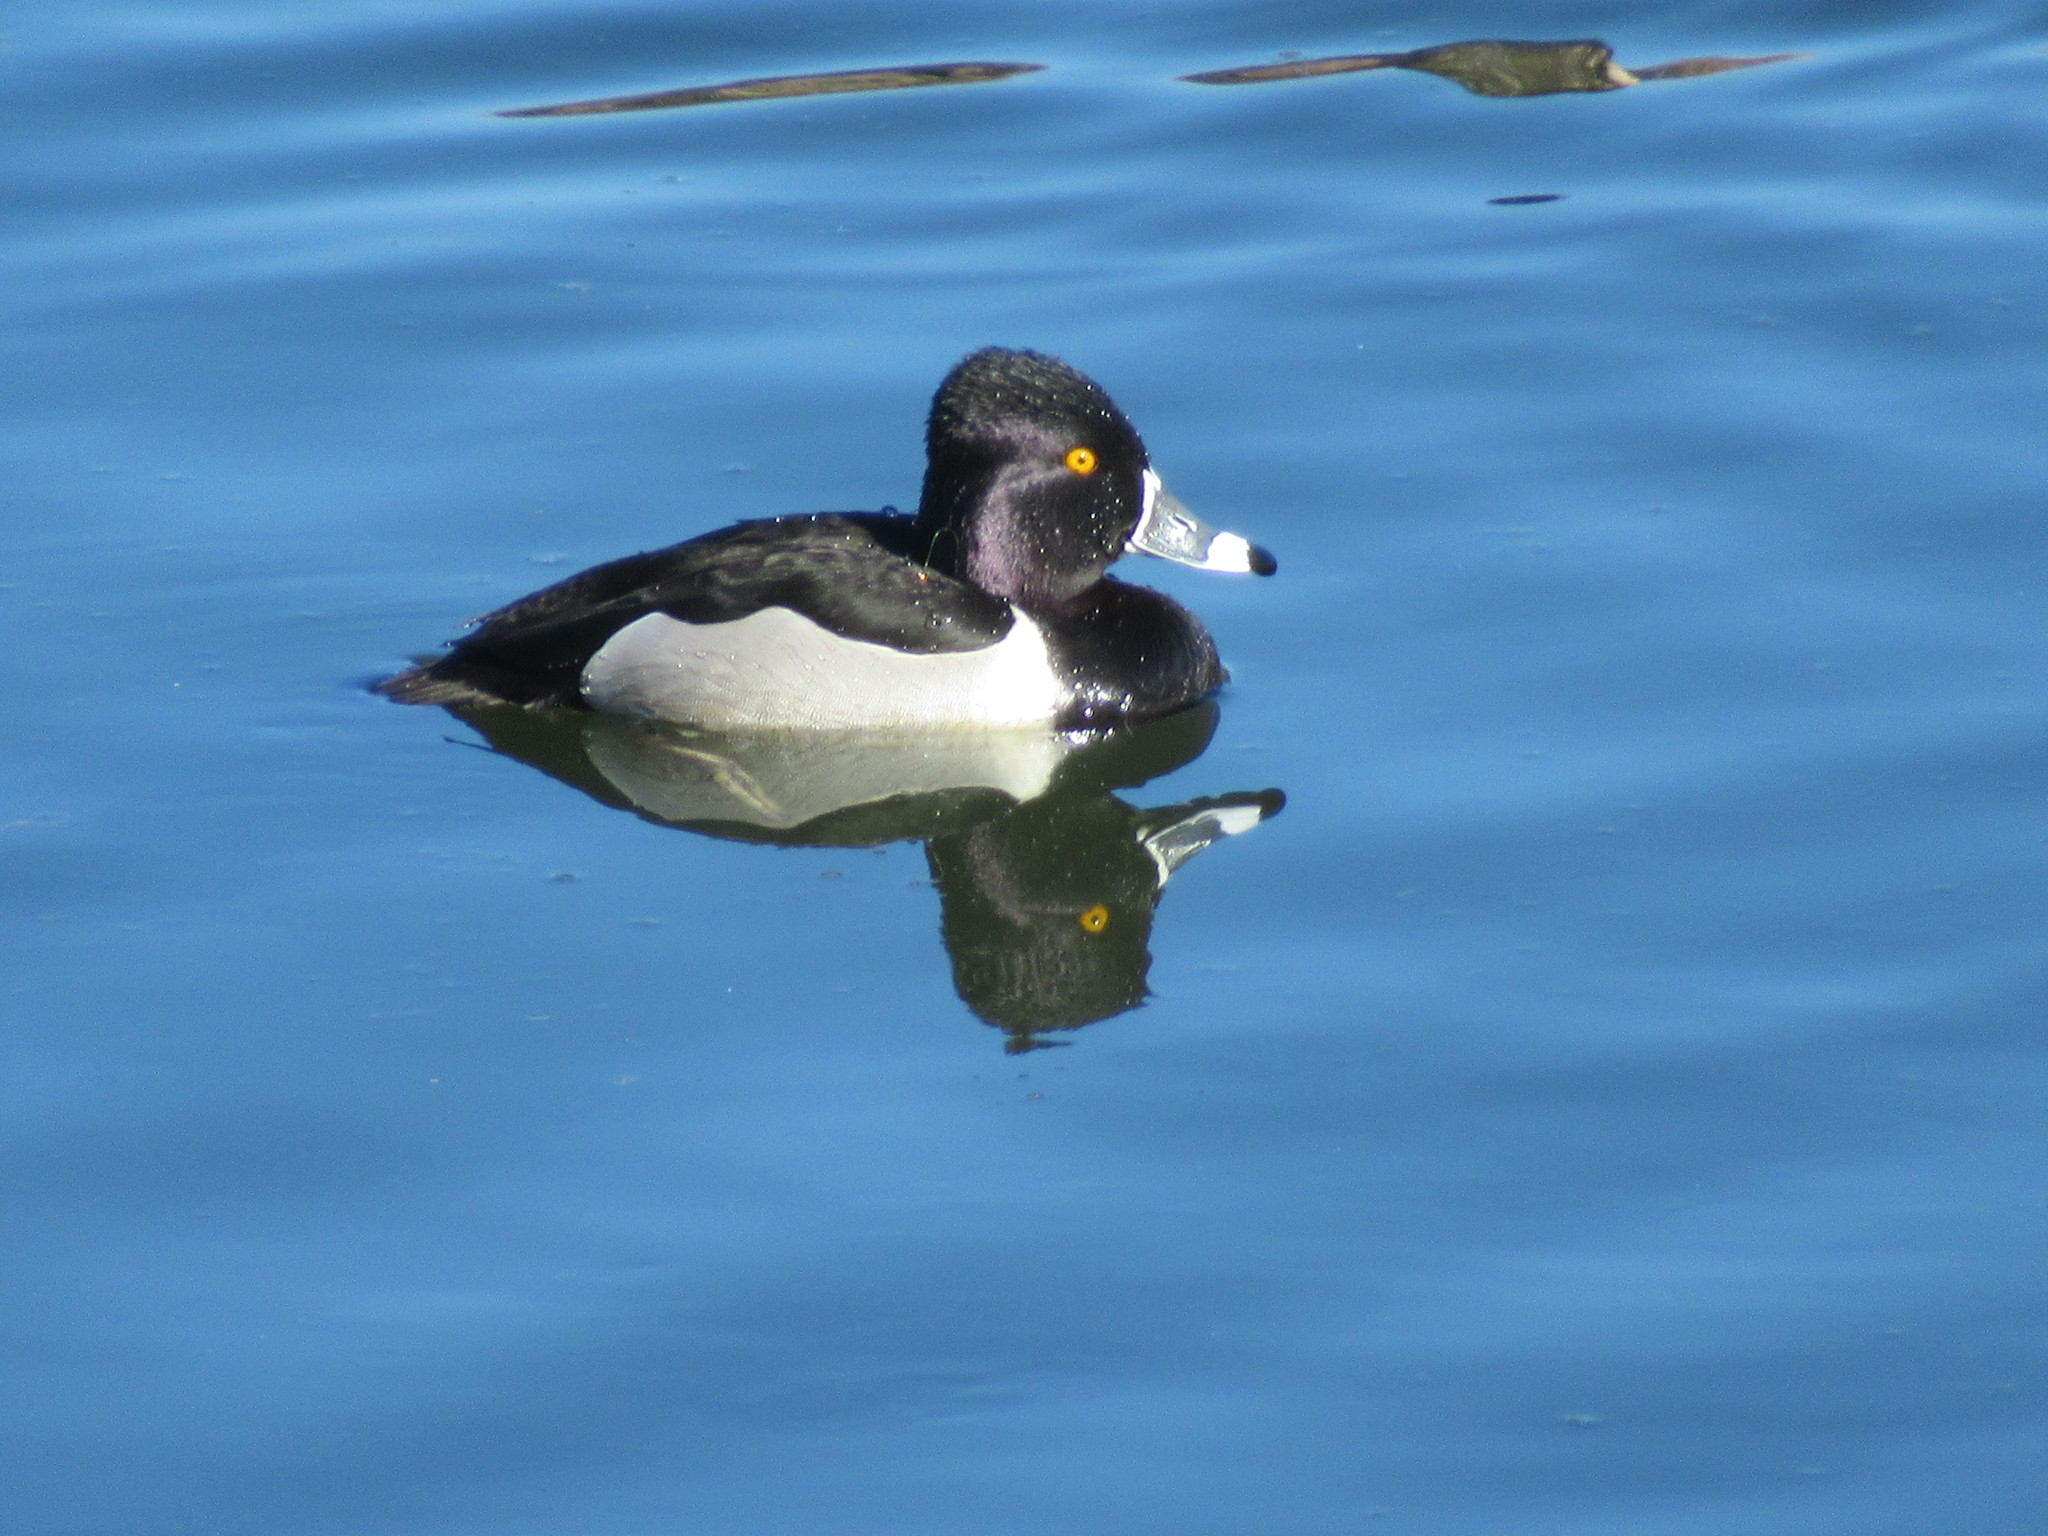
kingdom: Animalia
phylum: Chordata
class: Aves
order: Anseriformes
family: Anatidae
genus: Aythya
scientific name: Aythya collaris
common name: Ring-necked duck
